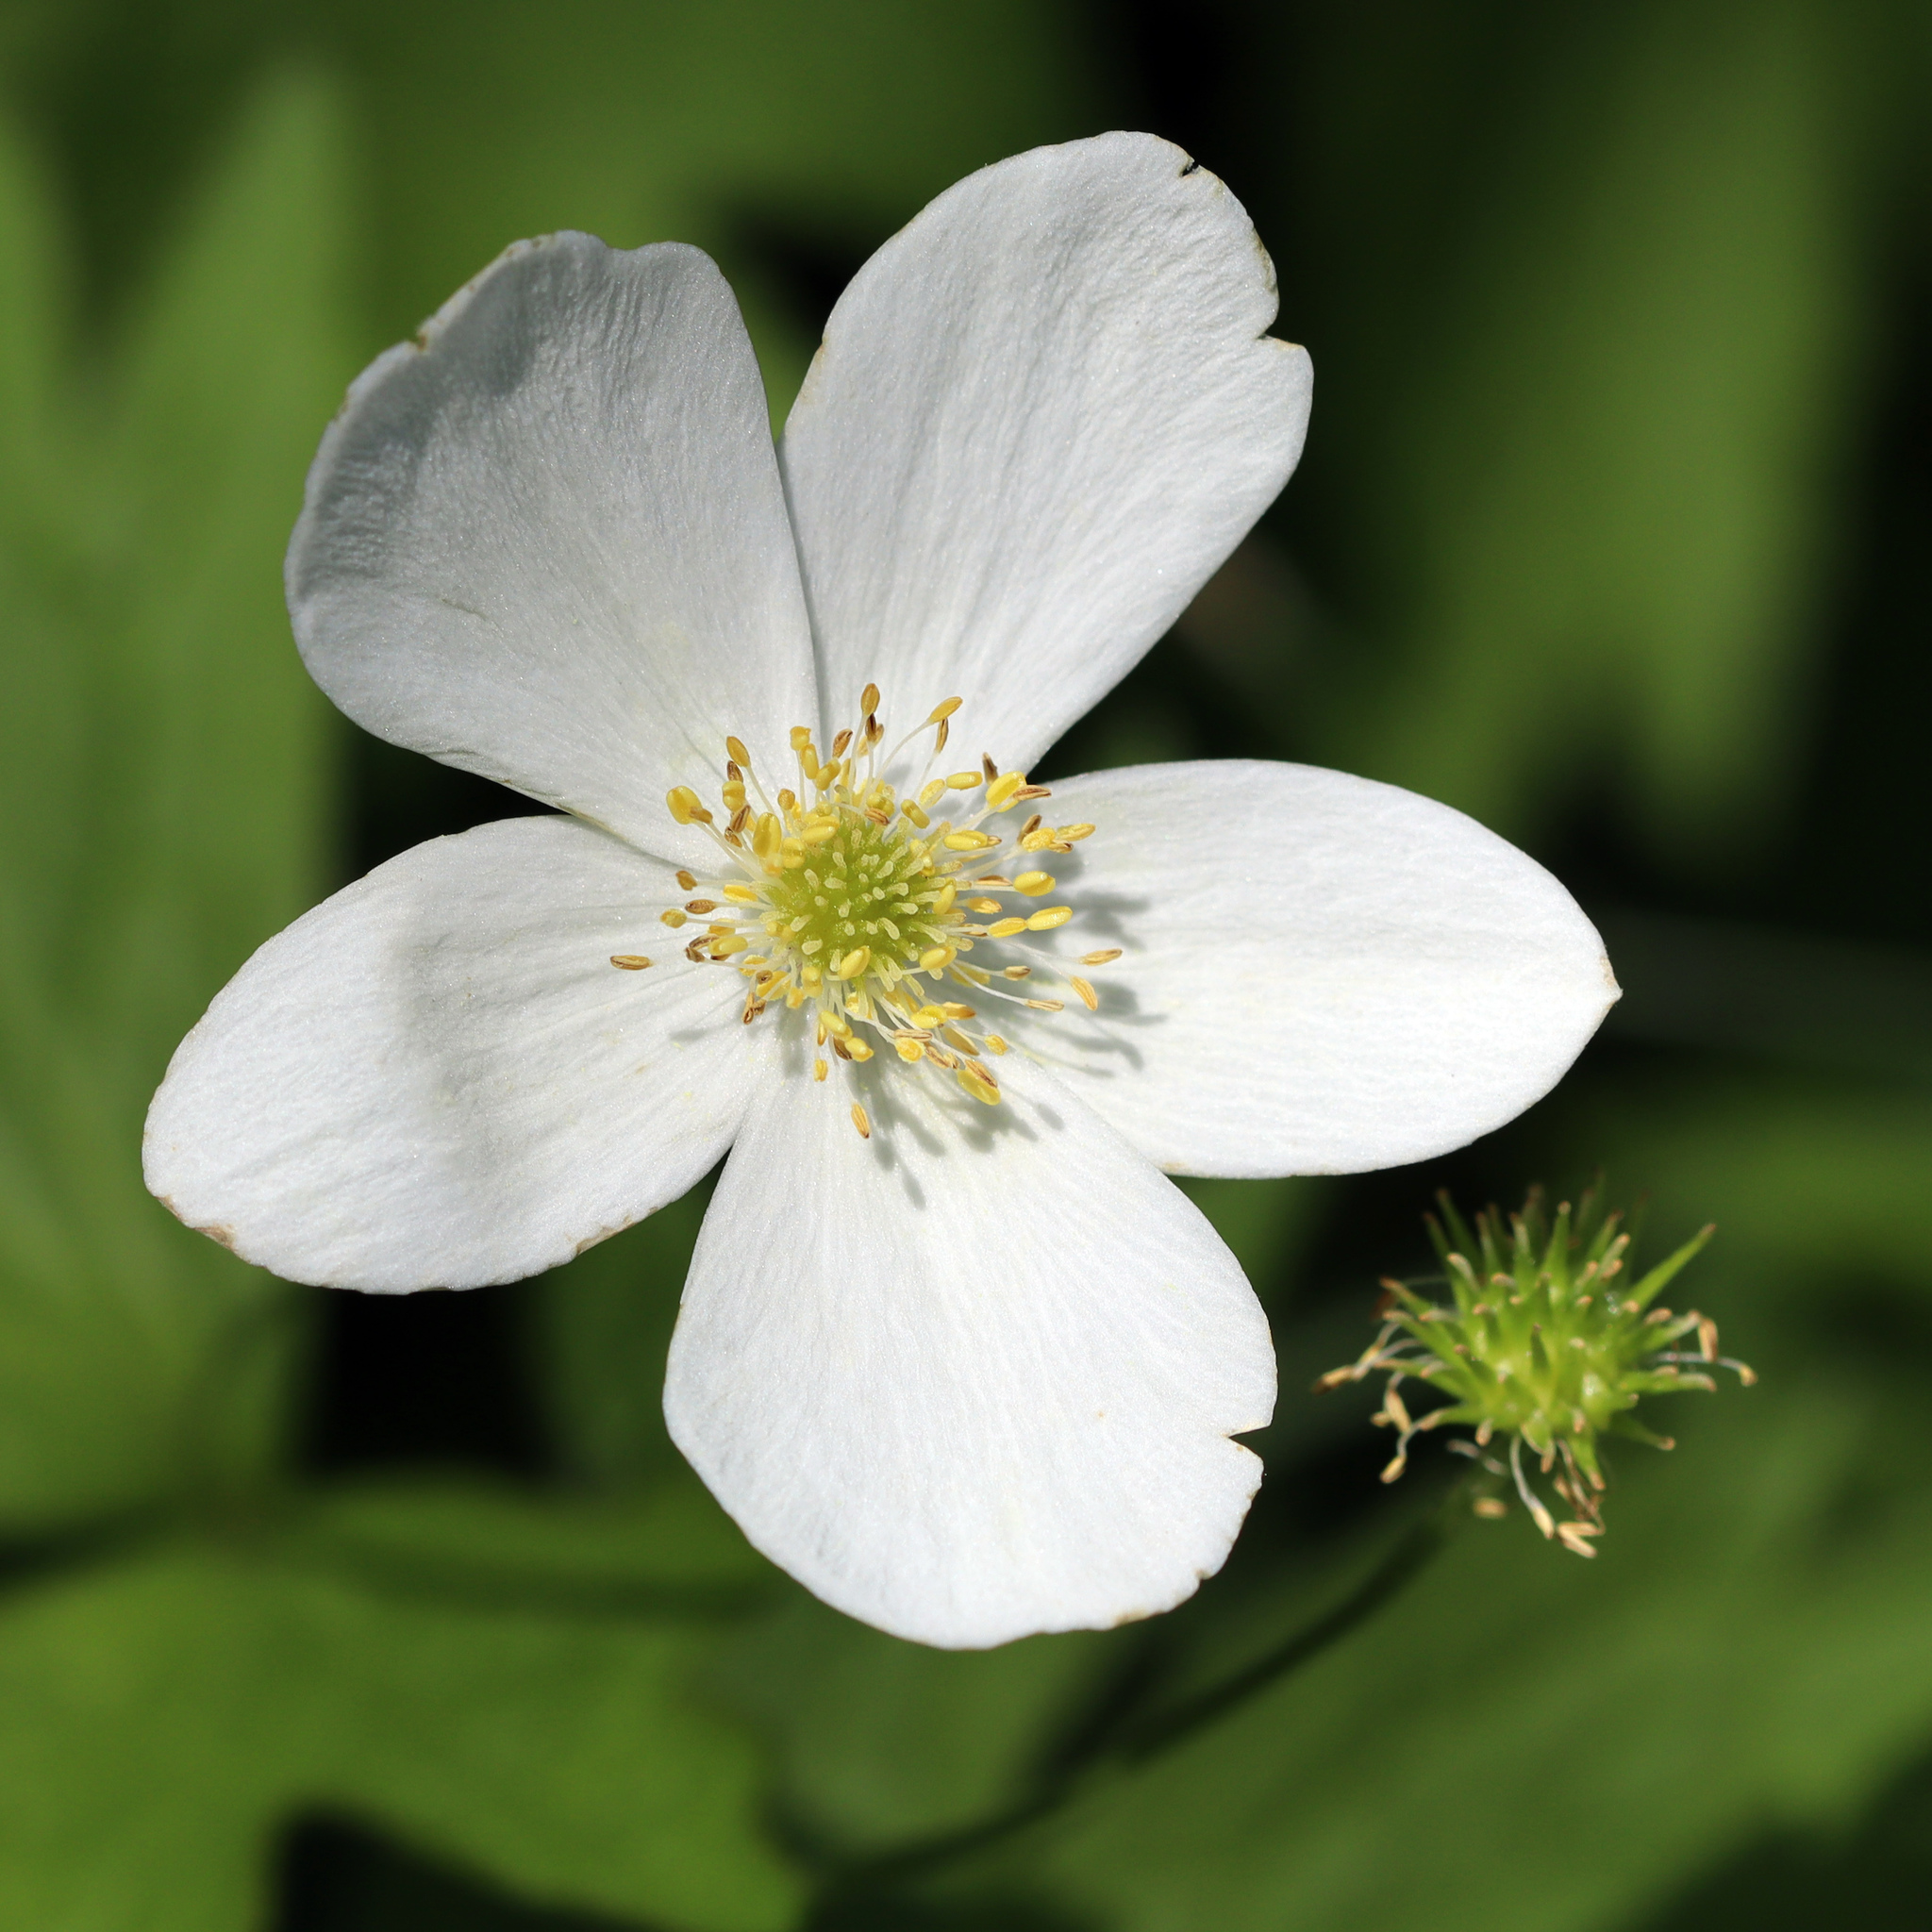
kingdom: Plantae
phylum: Tracheophyta
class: Magnoliopsida
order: Ranunculales
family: Ranunculaceae
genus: Anemonastrum
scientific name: Anemonastrum canadense
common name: Canada anemone
